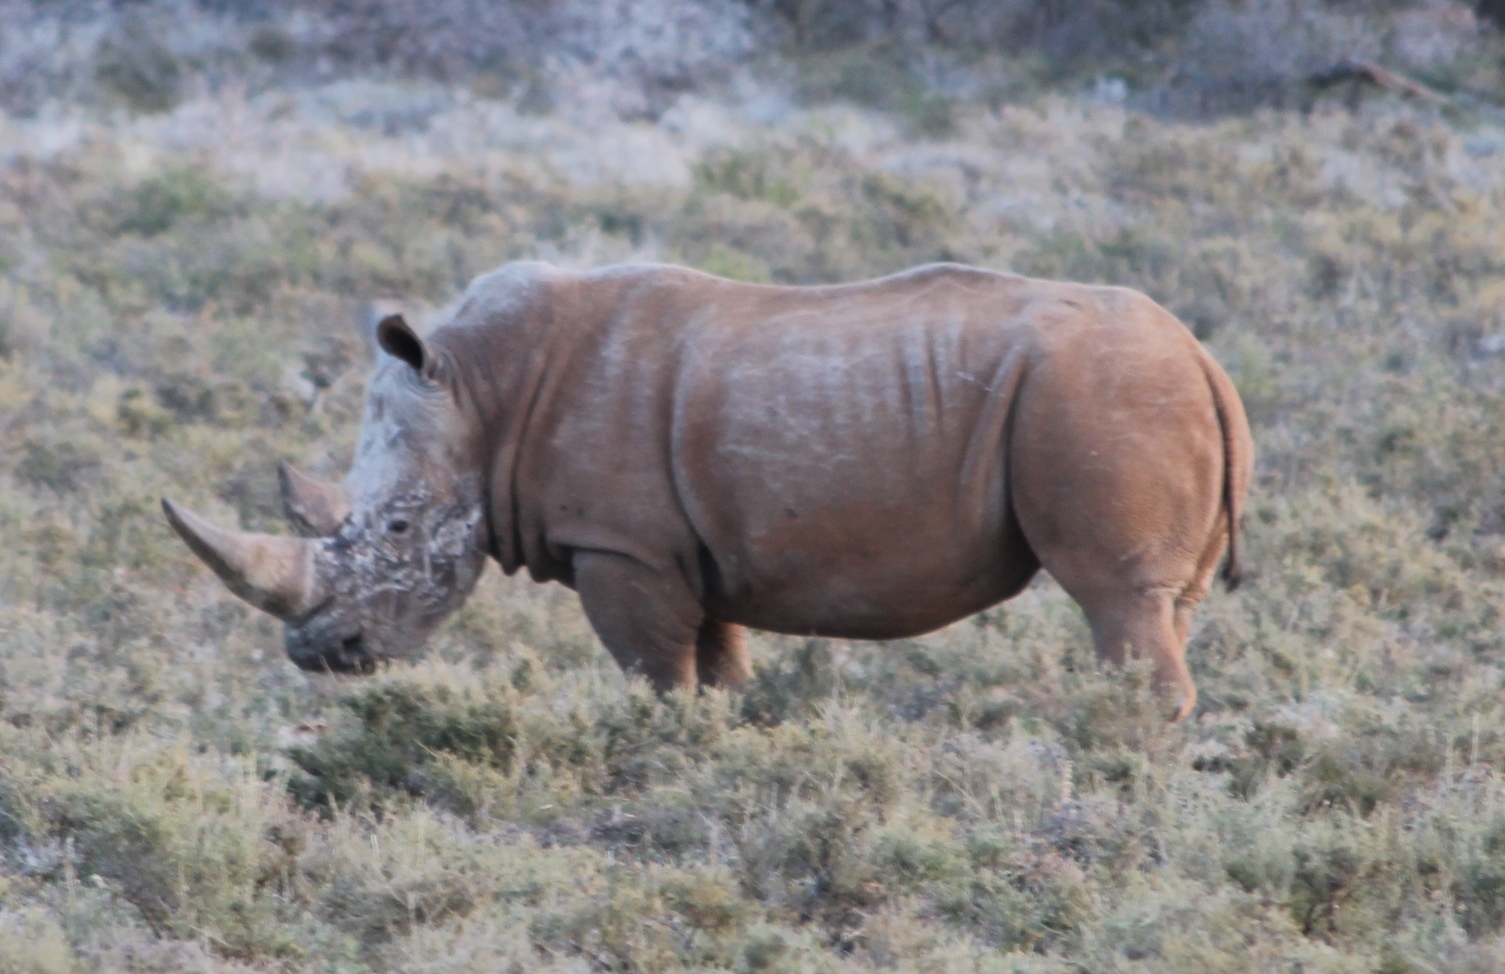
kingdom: Animalia
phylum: Chordata
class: Mammalia
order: Perissodactyla
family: Rhinocerotidae
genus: Ceratotherium
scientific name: Ceratotherium simum
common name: White rhinoceros
